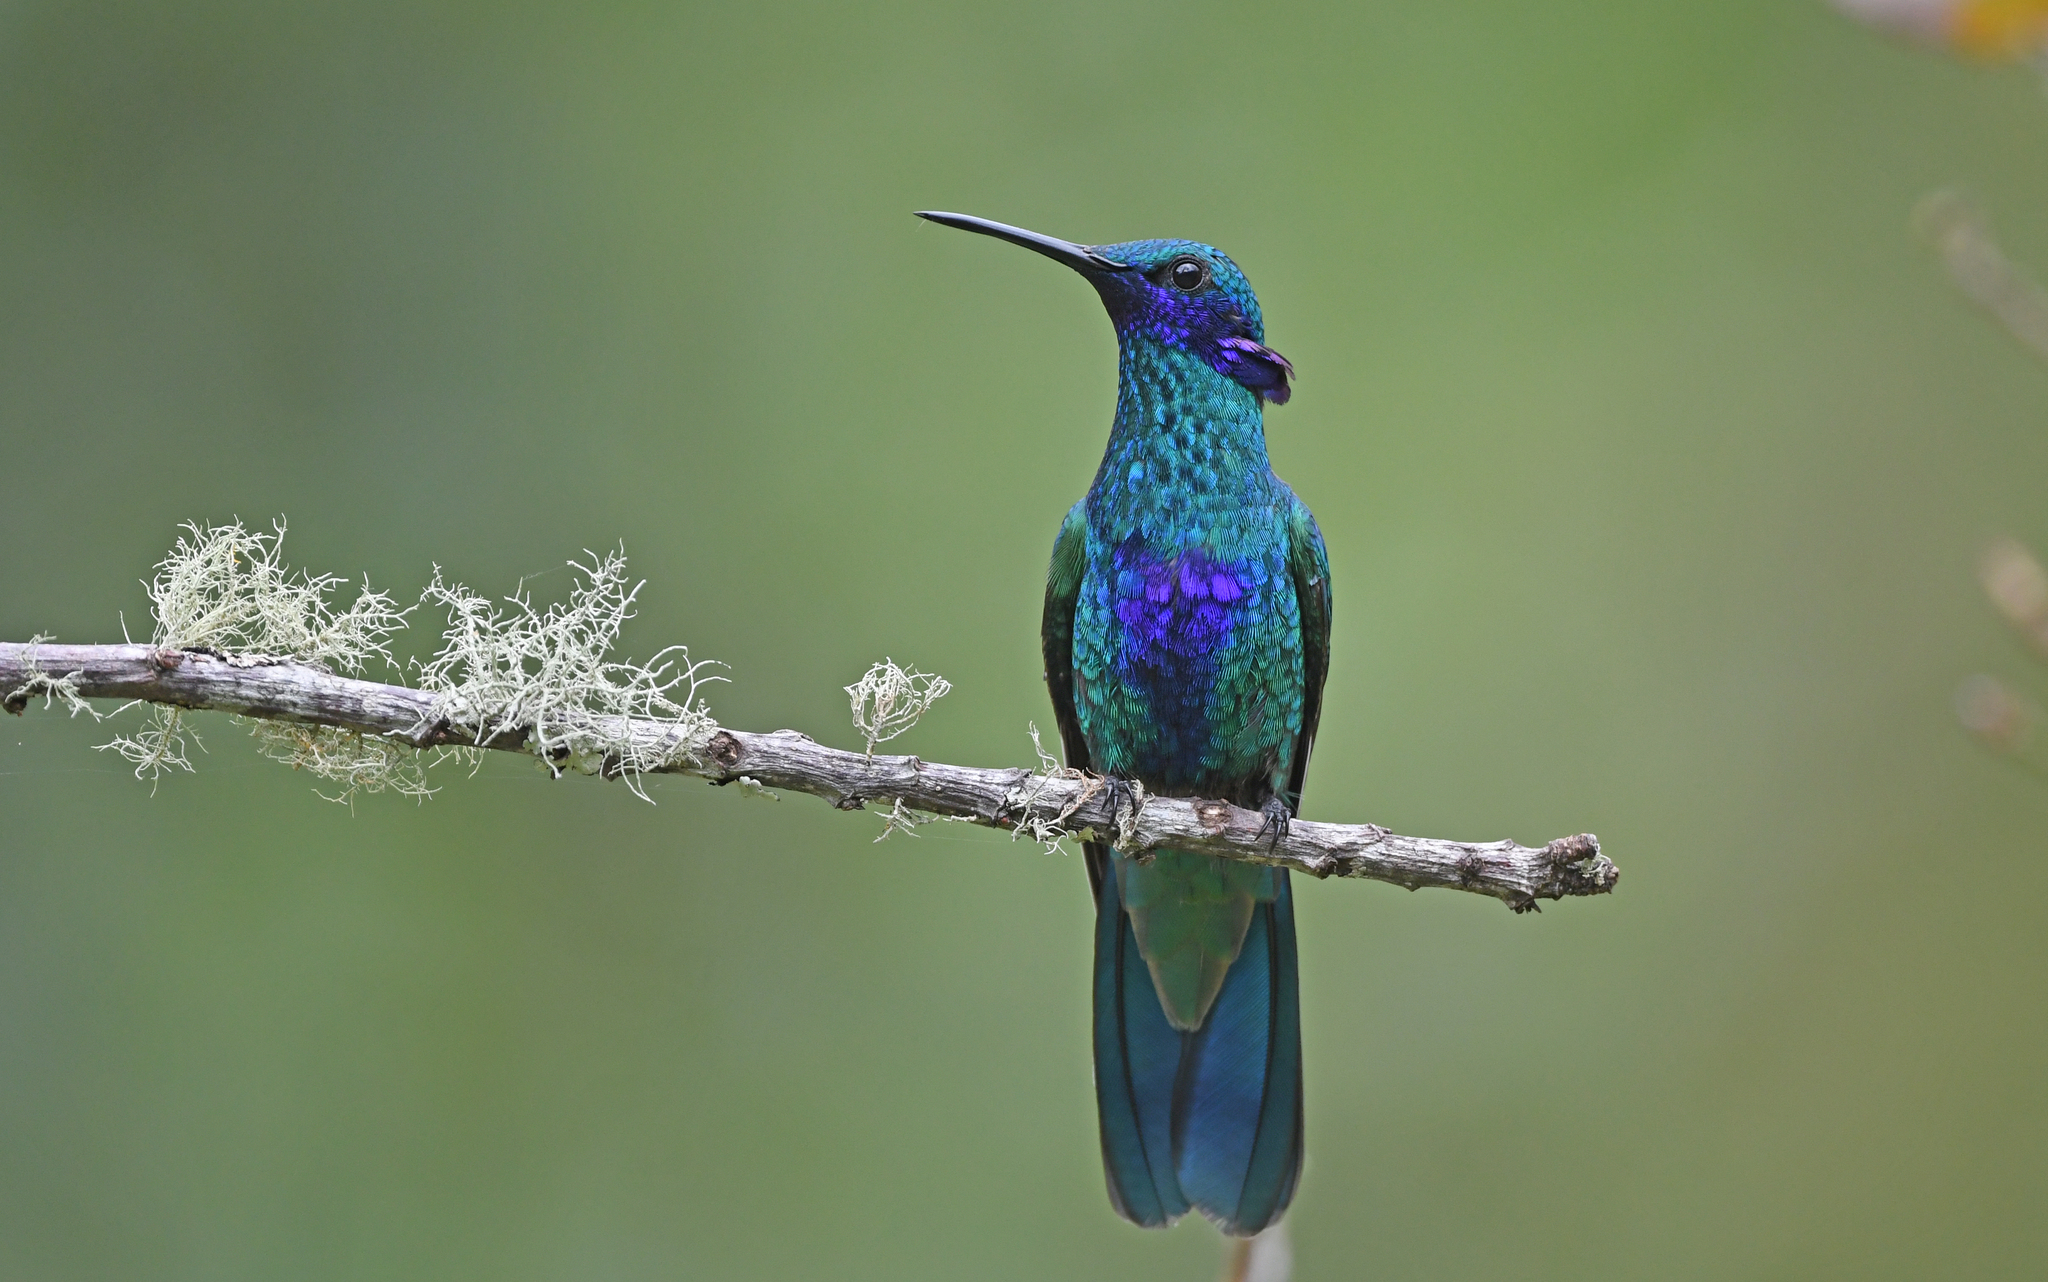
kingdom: Animalia
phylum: Chordata
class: Aves
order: Apodiformes
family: Trochilidae
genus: Colibri
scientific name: Colibri coruscans
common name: Sparkling violetear
